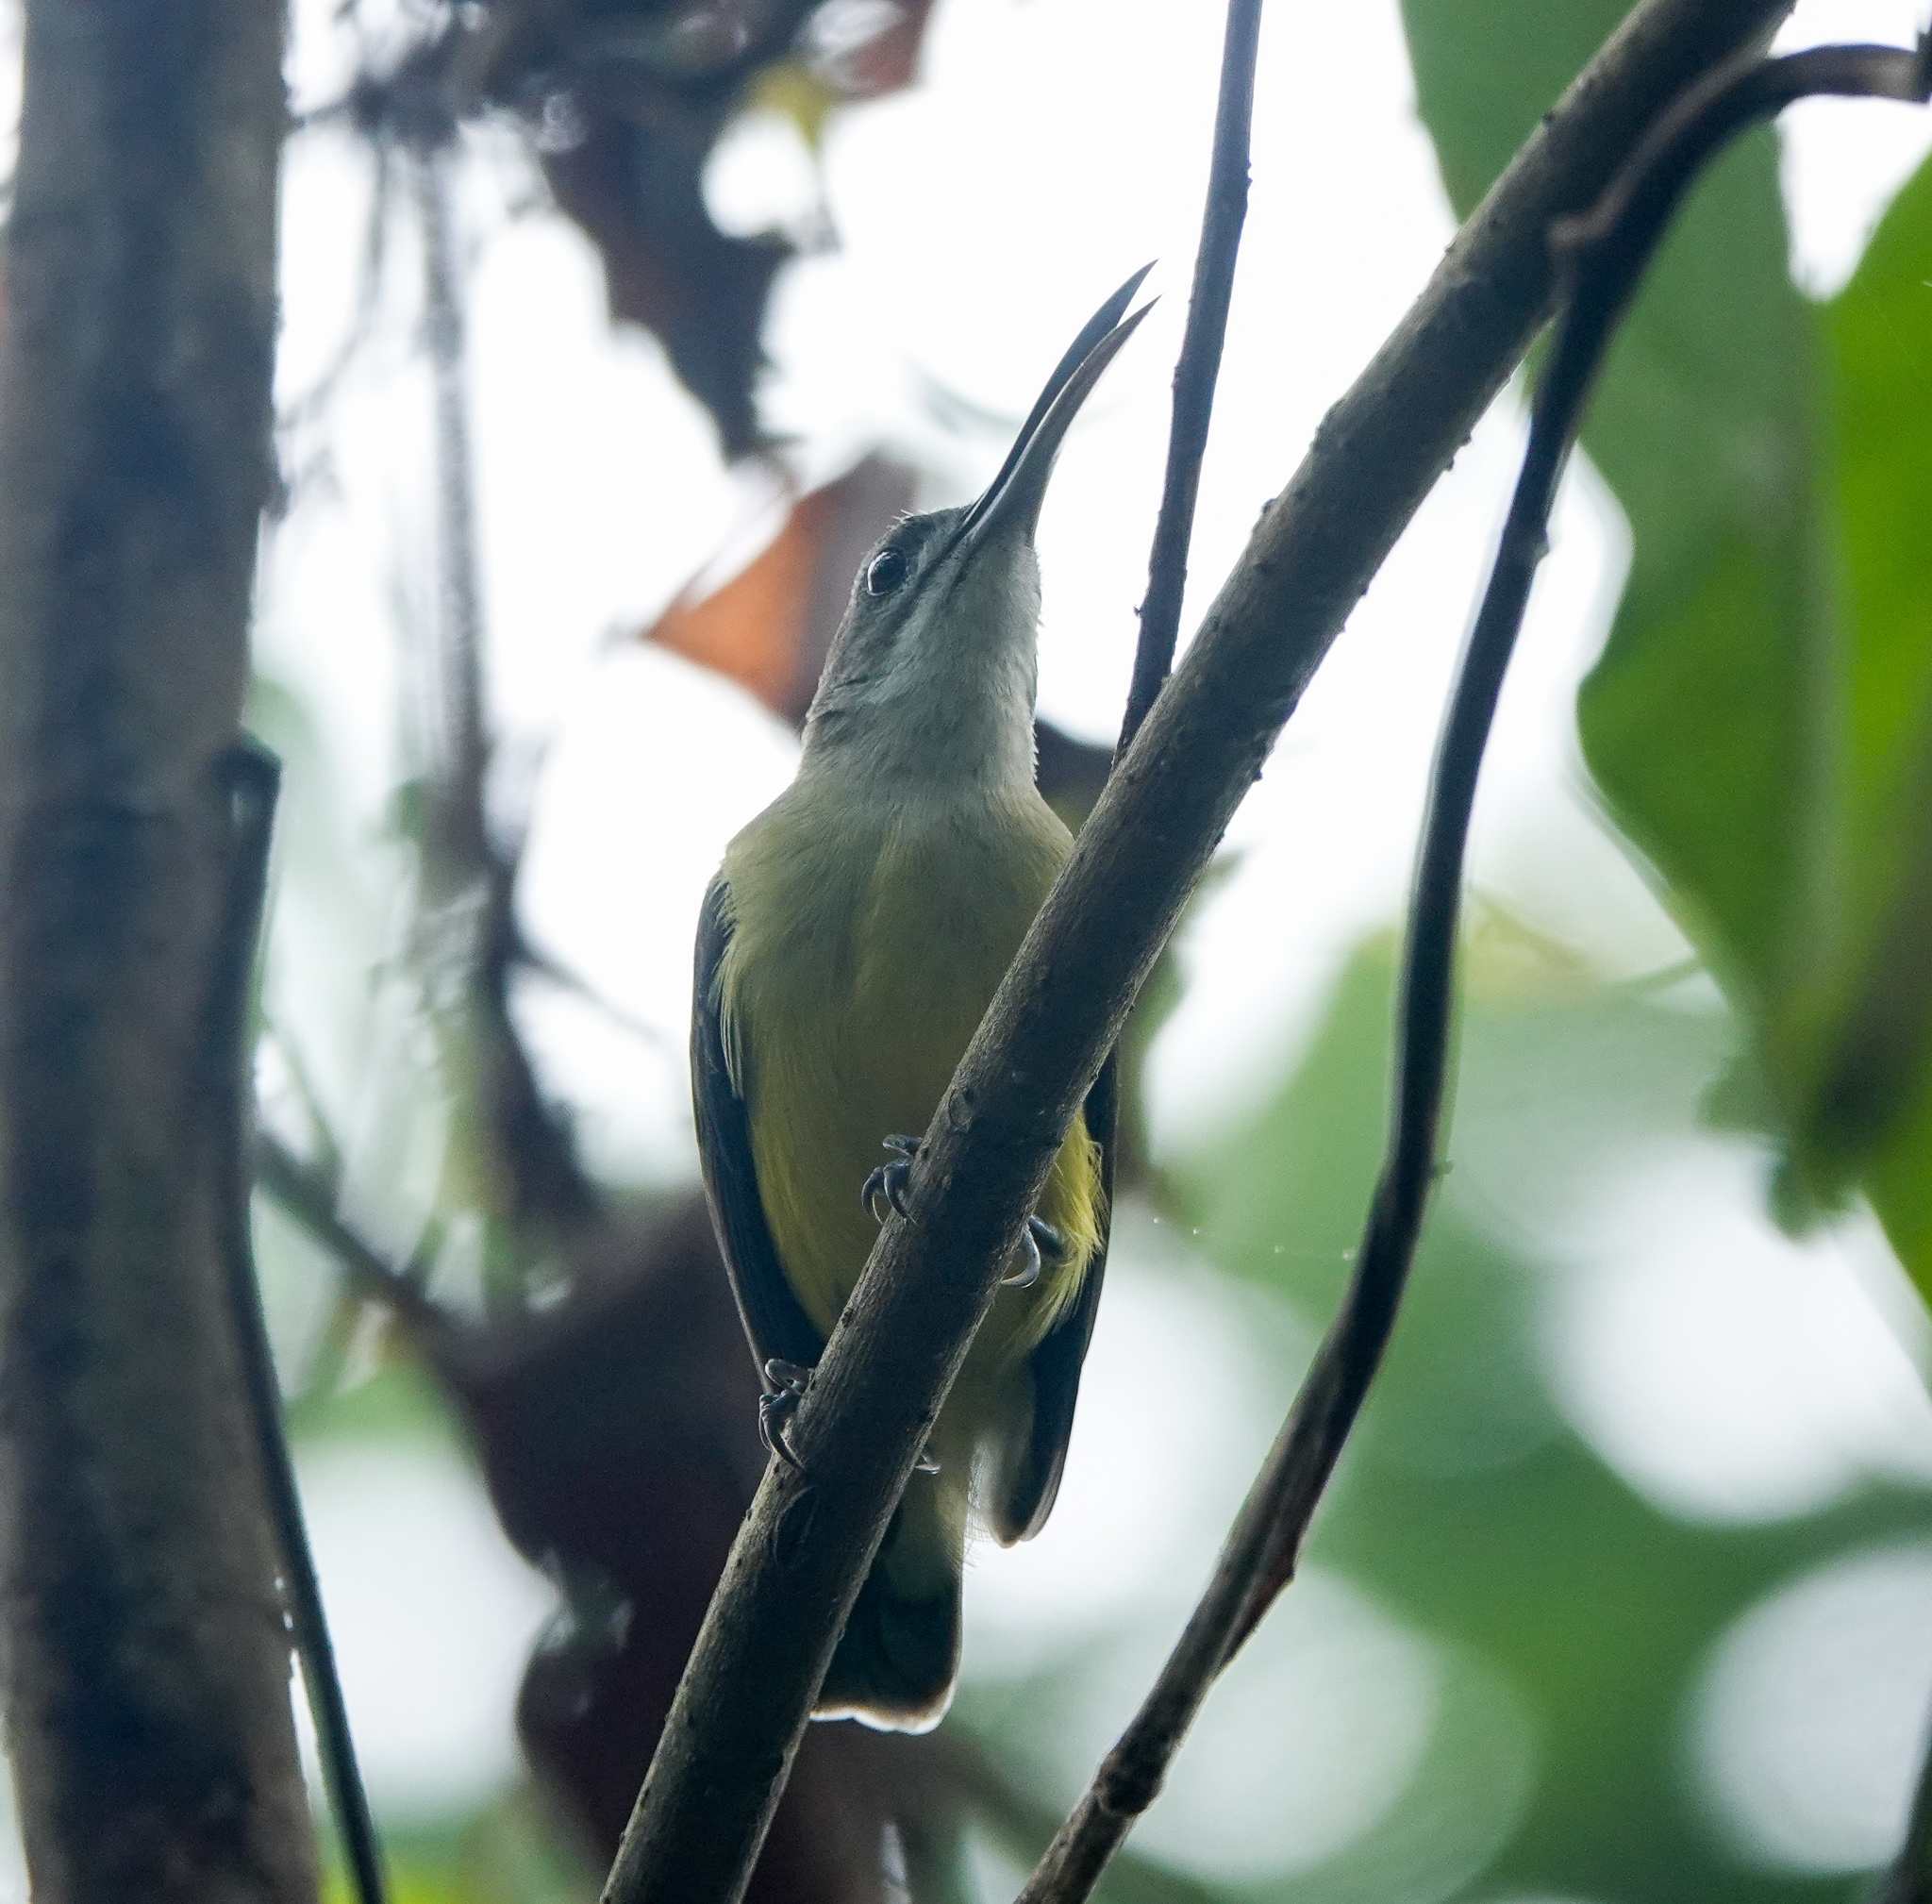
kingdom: Animalia
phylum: Chordata
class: Aves
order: Passeriformes
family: Nectariniidae
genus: Arachnothera
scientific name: Arachnothera longirostra
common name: Little spiderhunter
